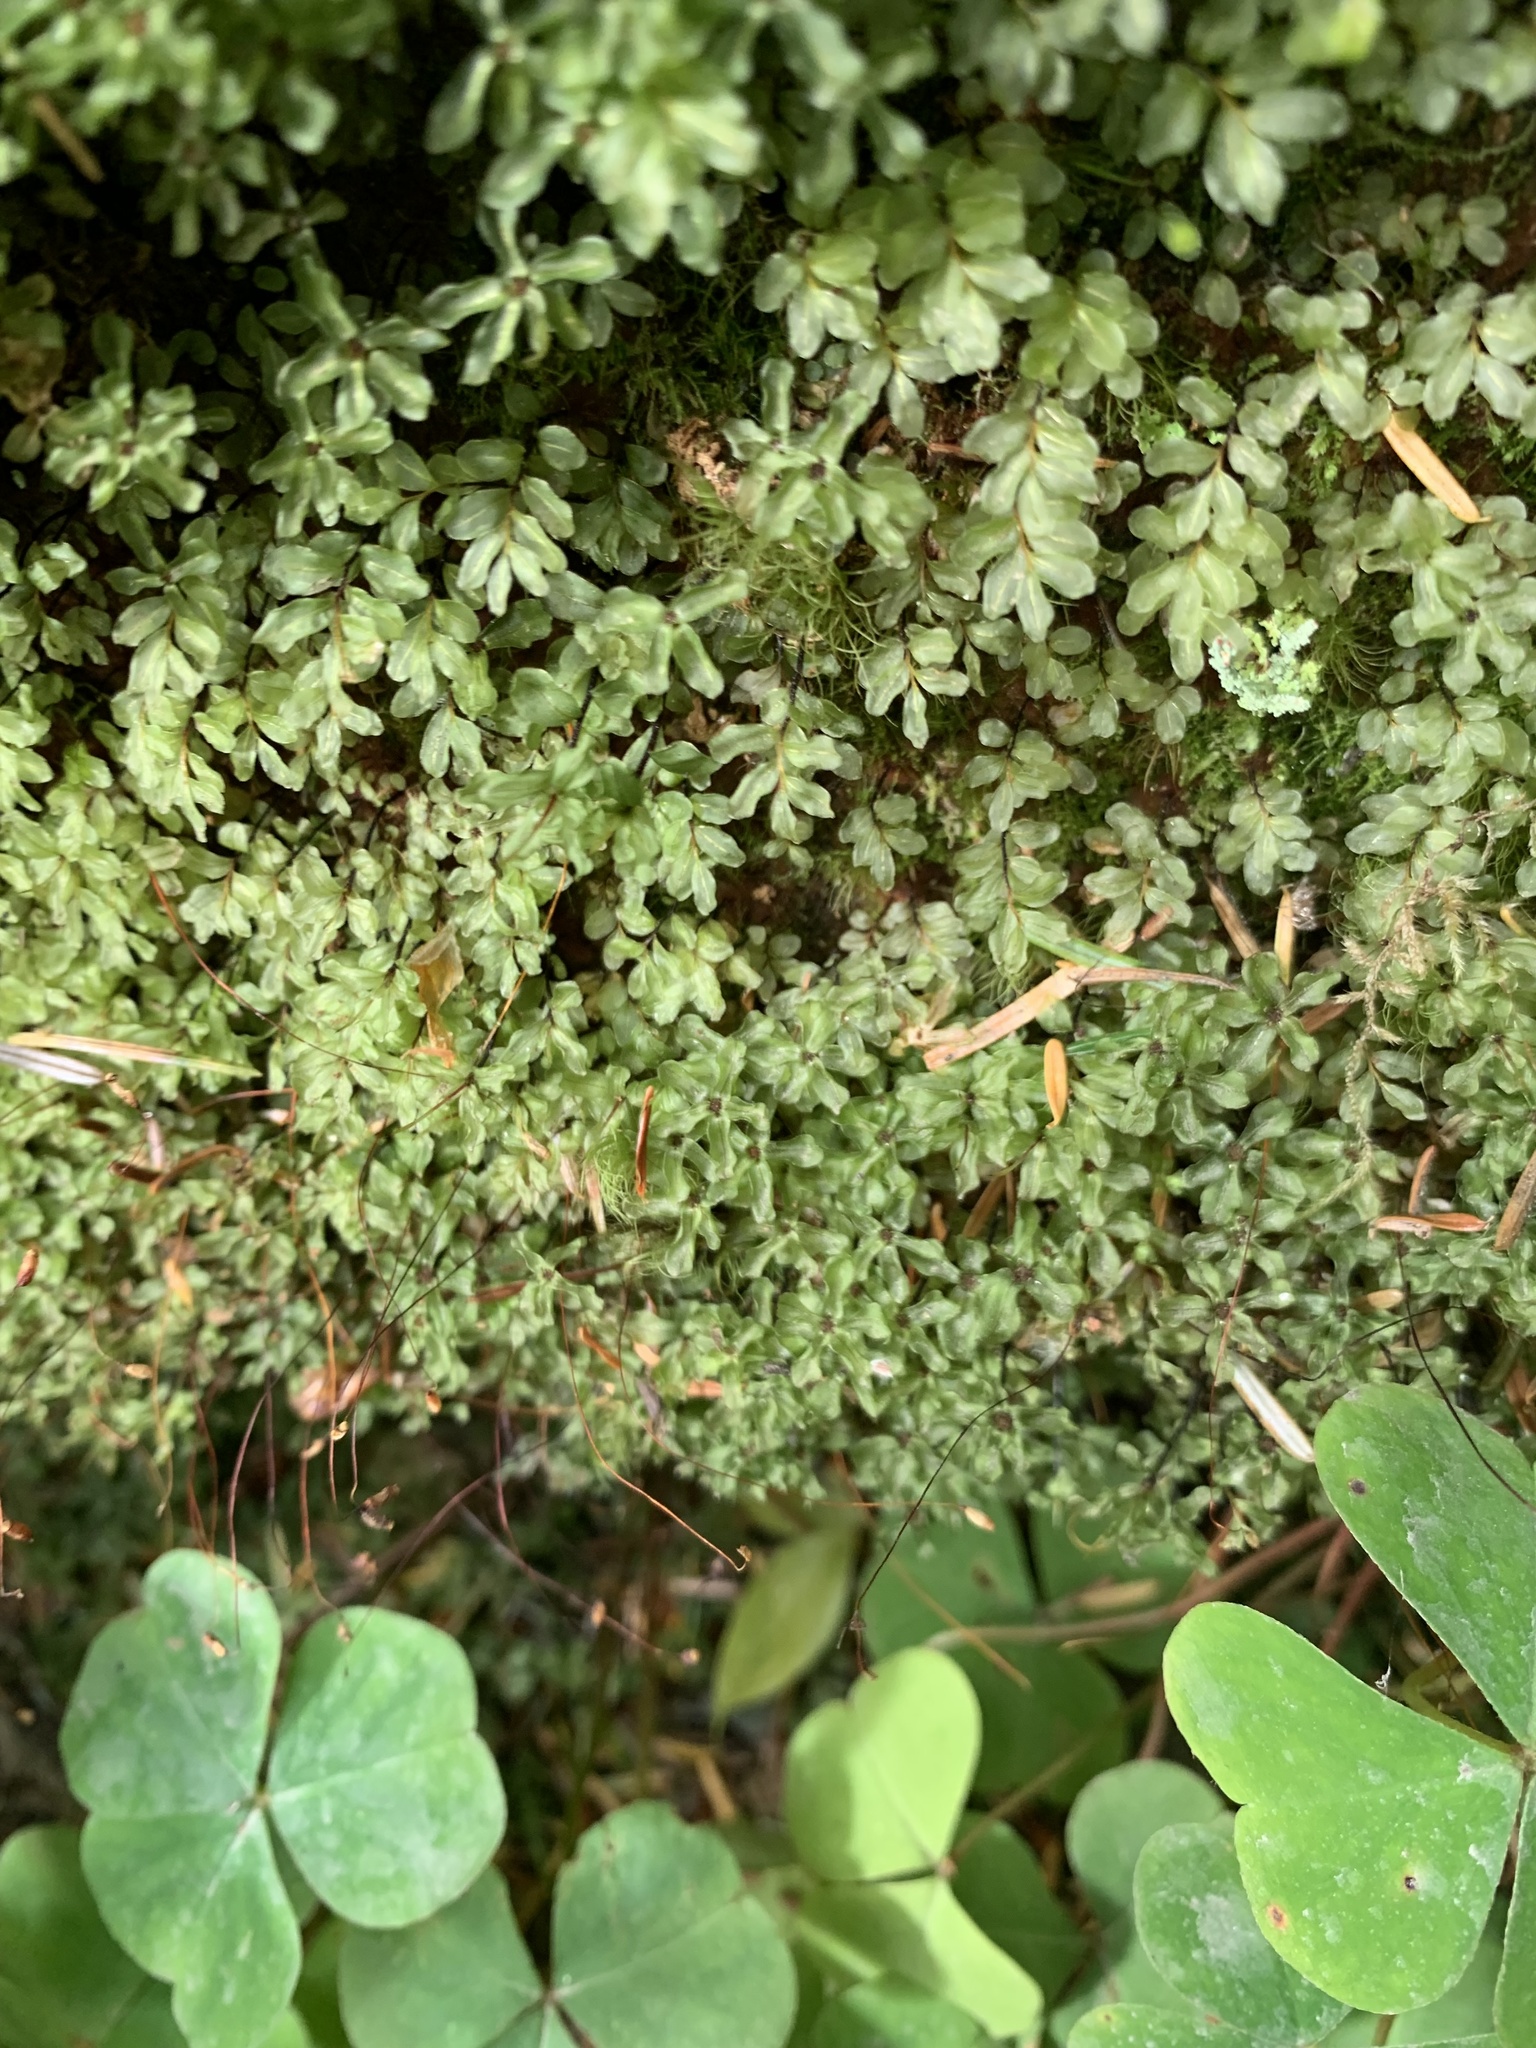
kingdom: Plantae
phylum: Bryophyta
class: Bryopsida
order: Bryales
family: Mniaceae
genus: Rhizomnium
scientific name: Rhizomnium glabrescens
